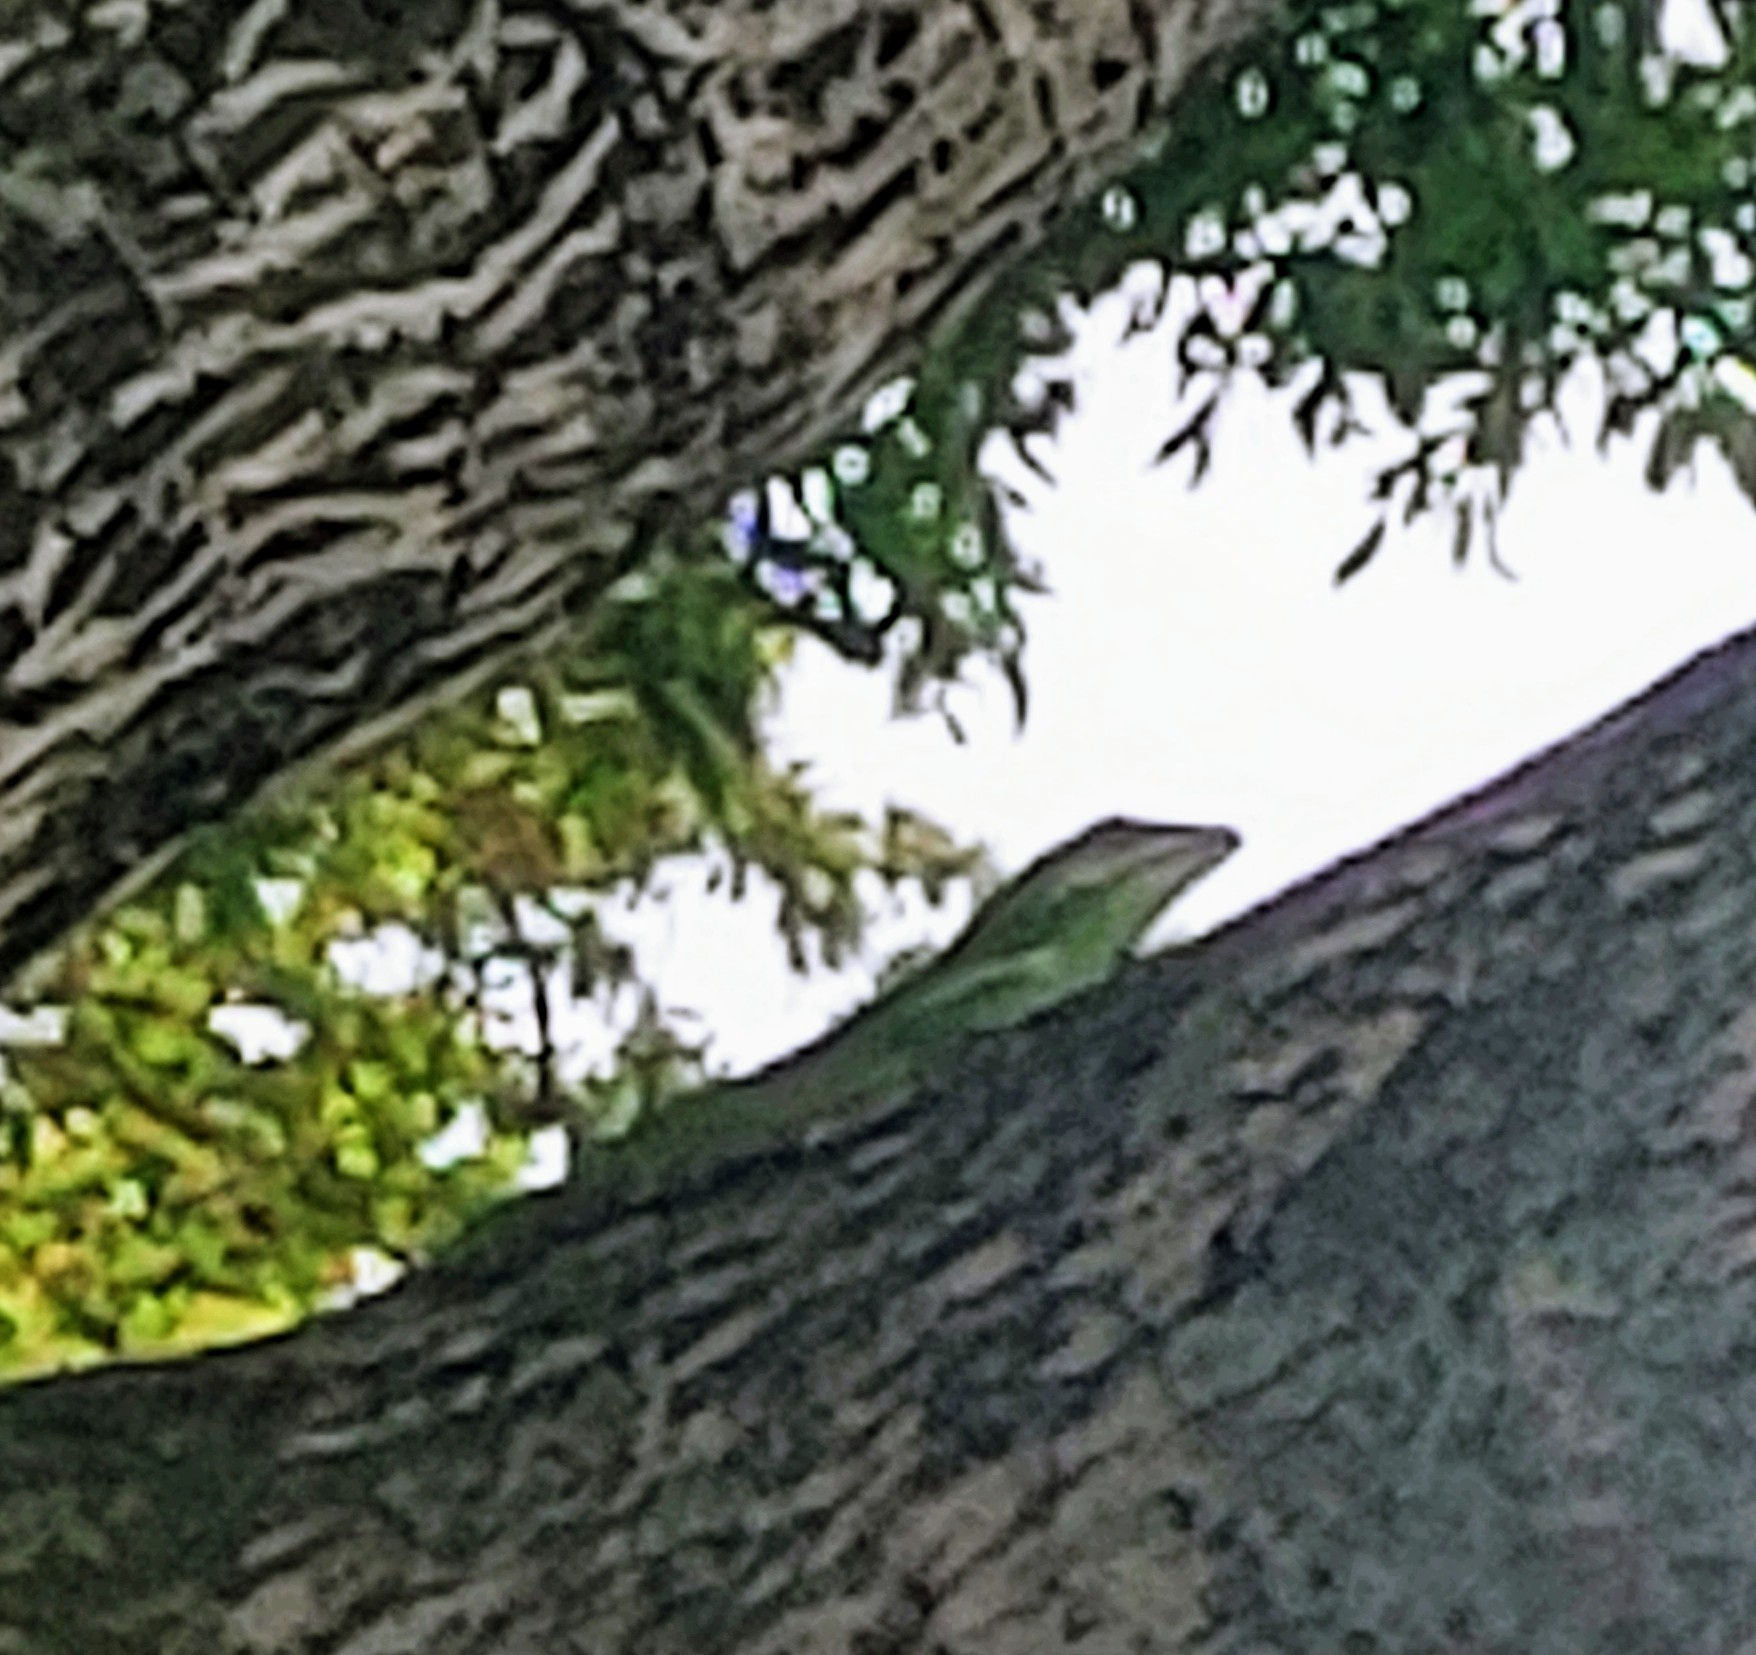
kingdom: Animalia
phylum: Chordata
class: Squamata
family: Dactyloidae
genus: Anolis
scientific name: Anolis equestris
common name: Knight anole
